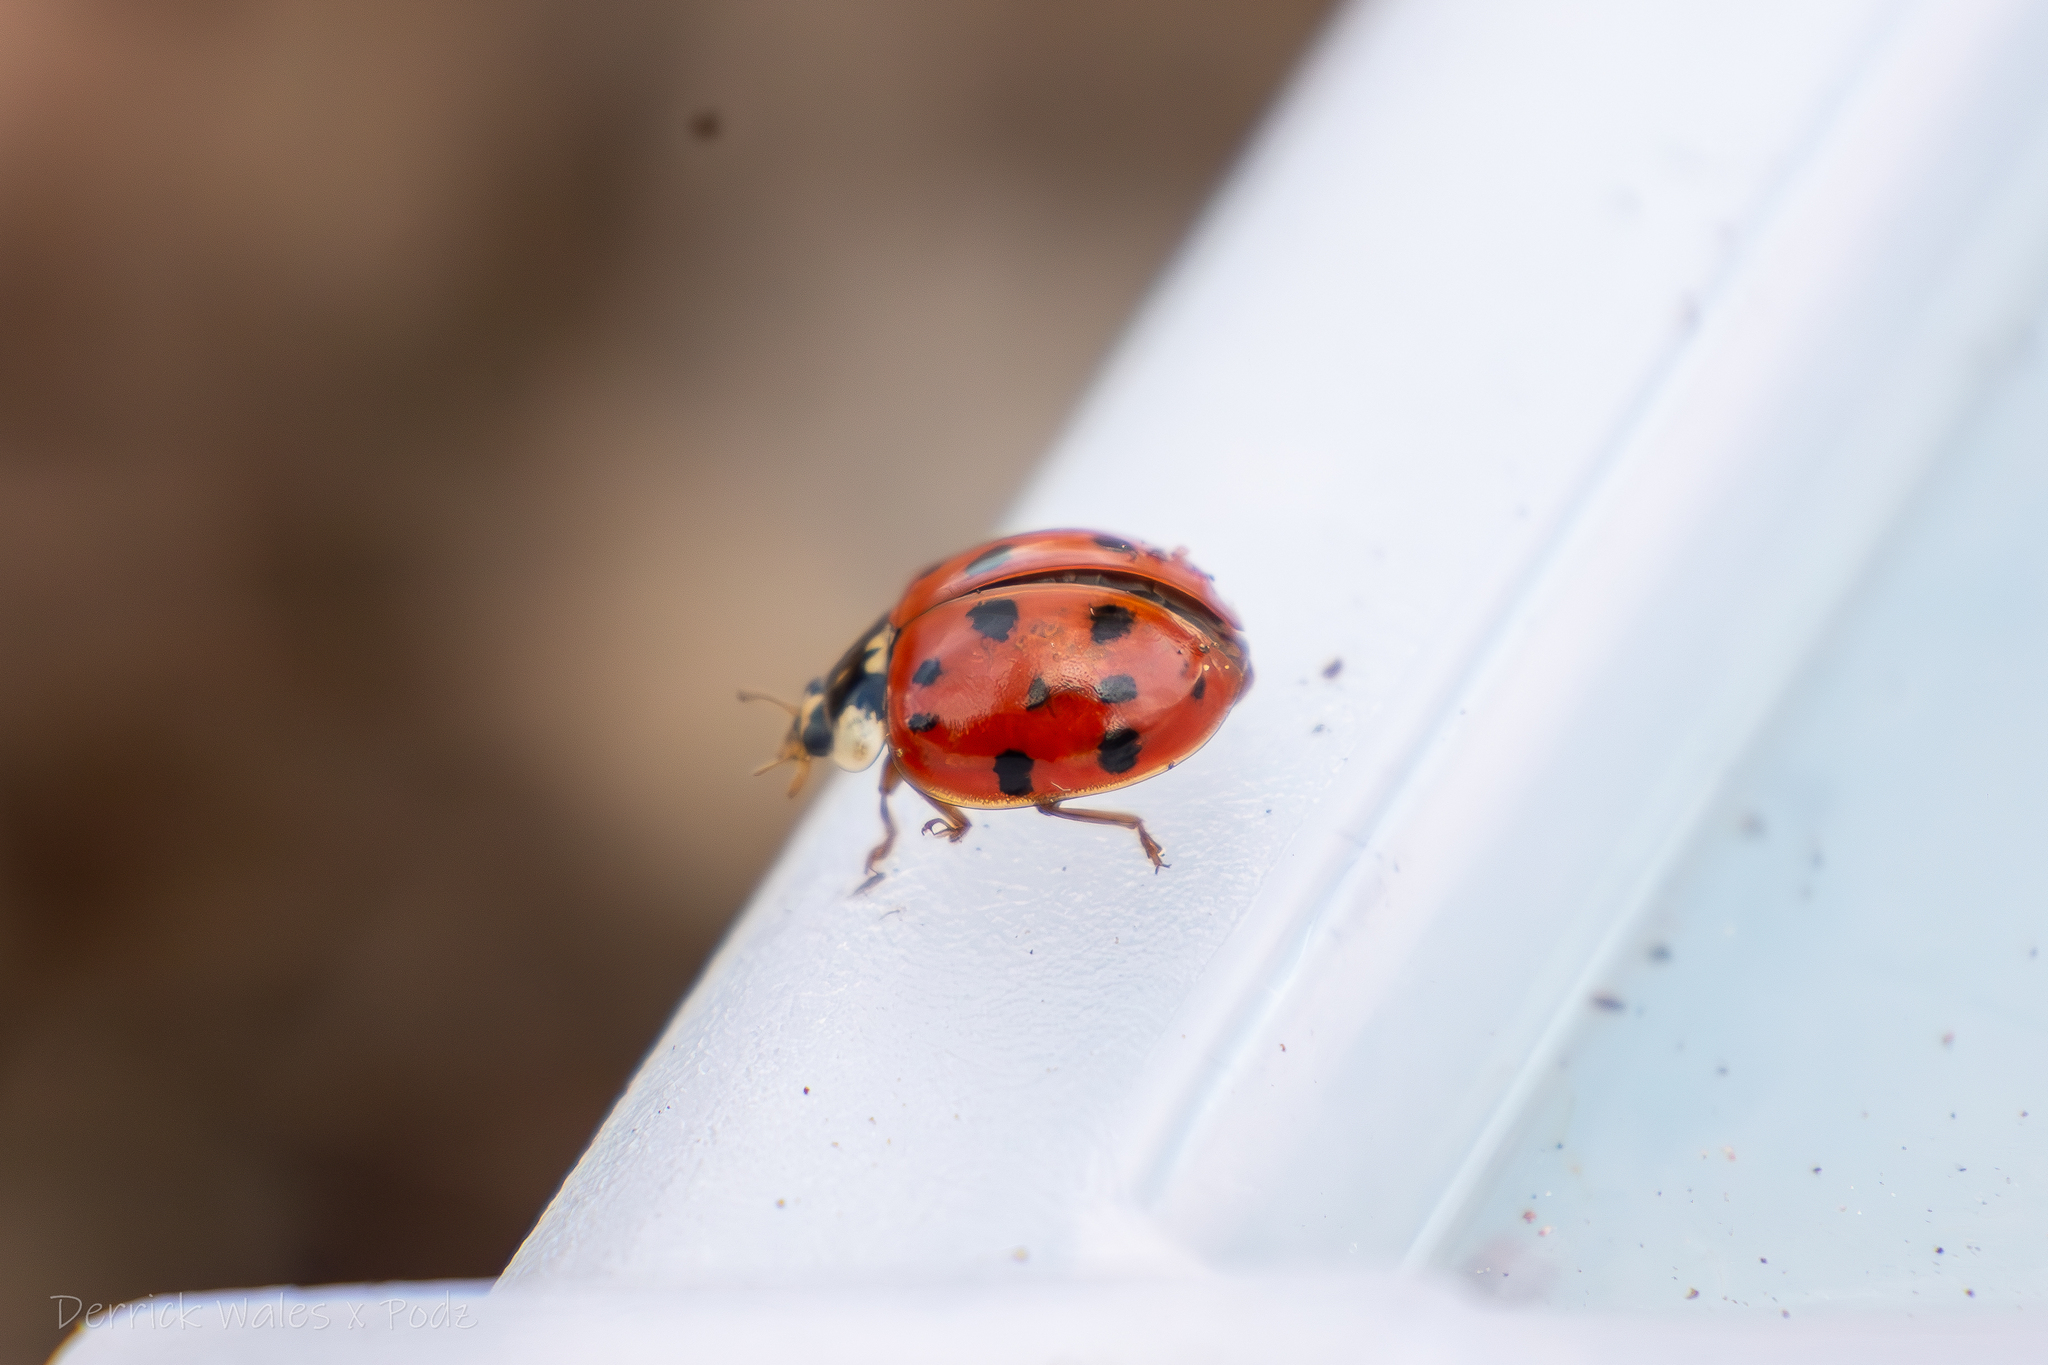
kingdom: Animalia
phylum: Arthropoda
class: Insecta
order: Coleoptera
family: Coccinellidae
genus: Harmonia
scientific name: Harmonia axyridis
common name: Harlequin ladybird
